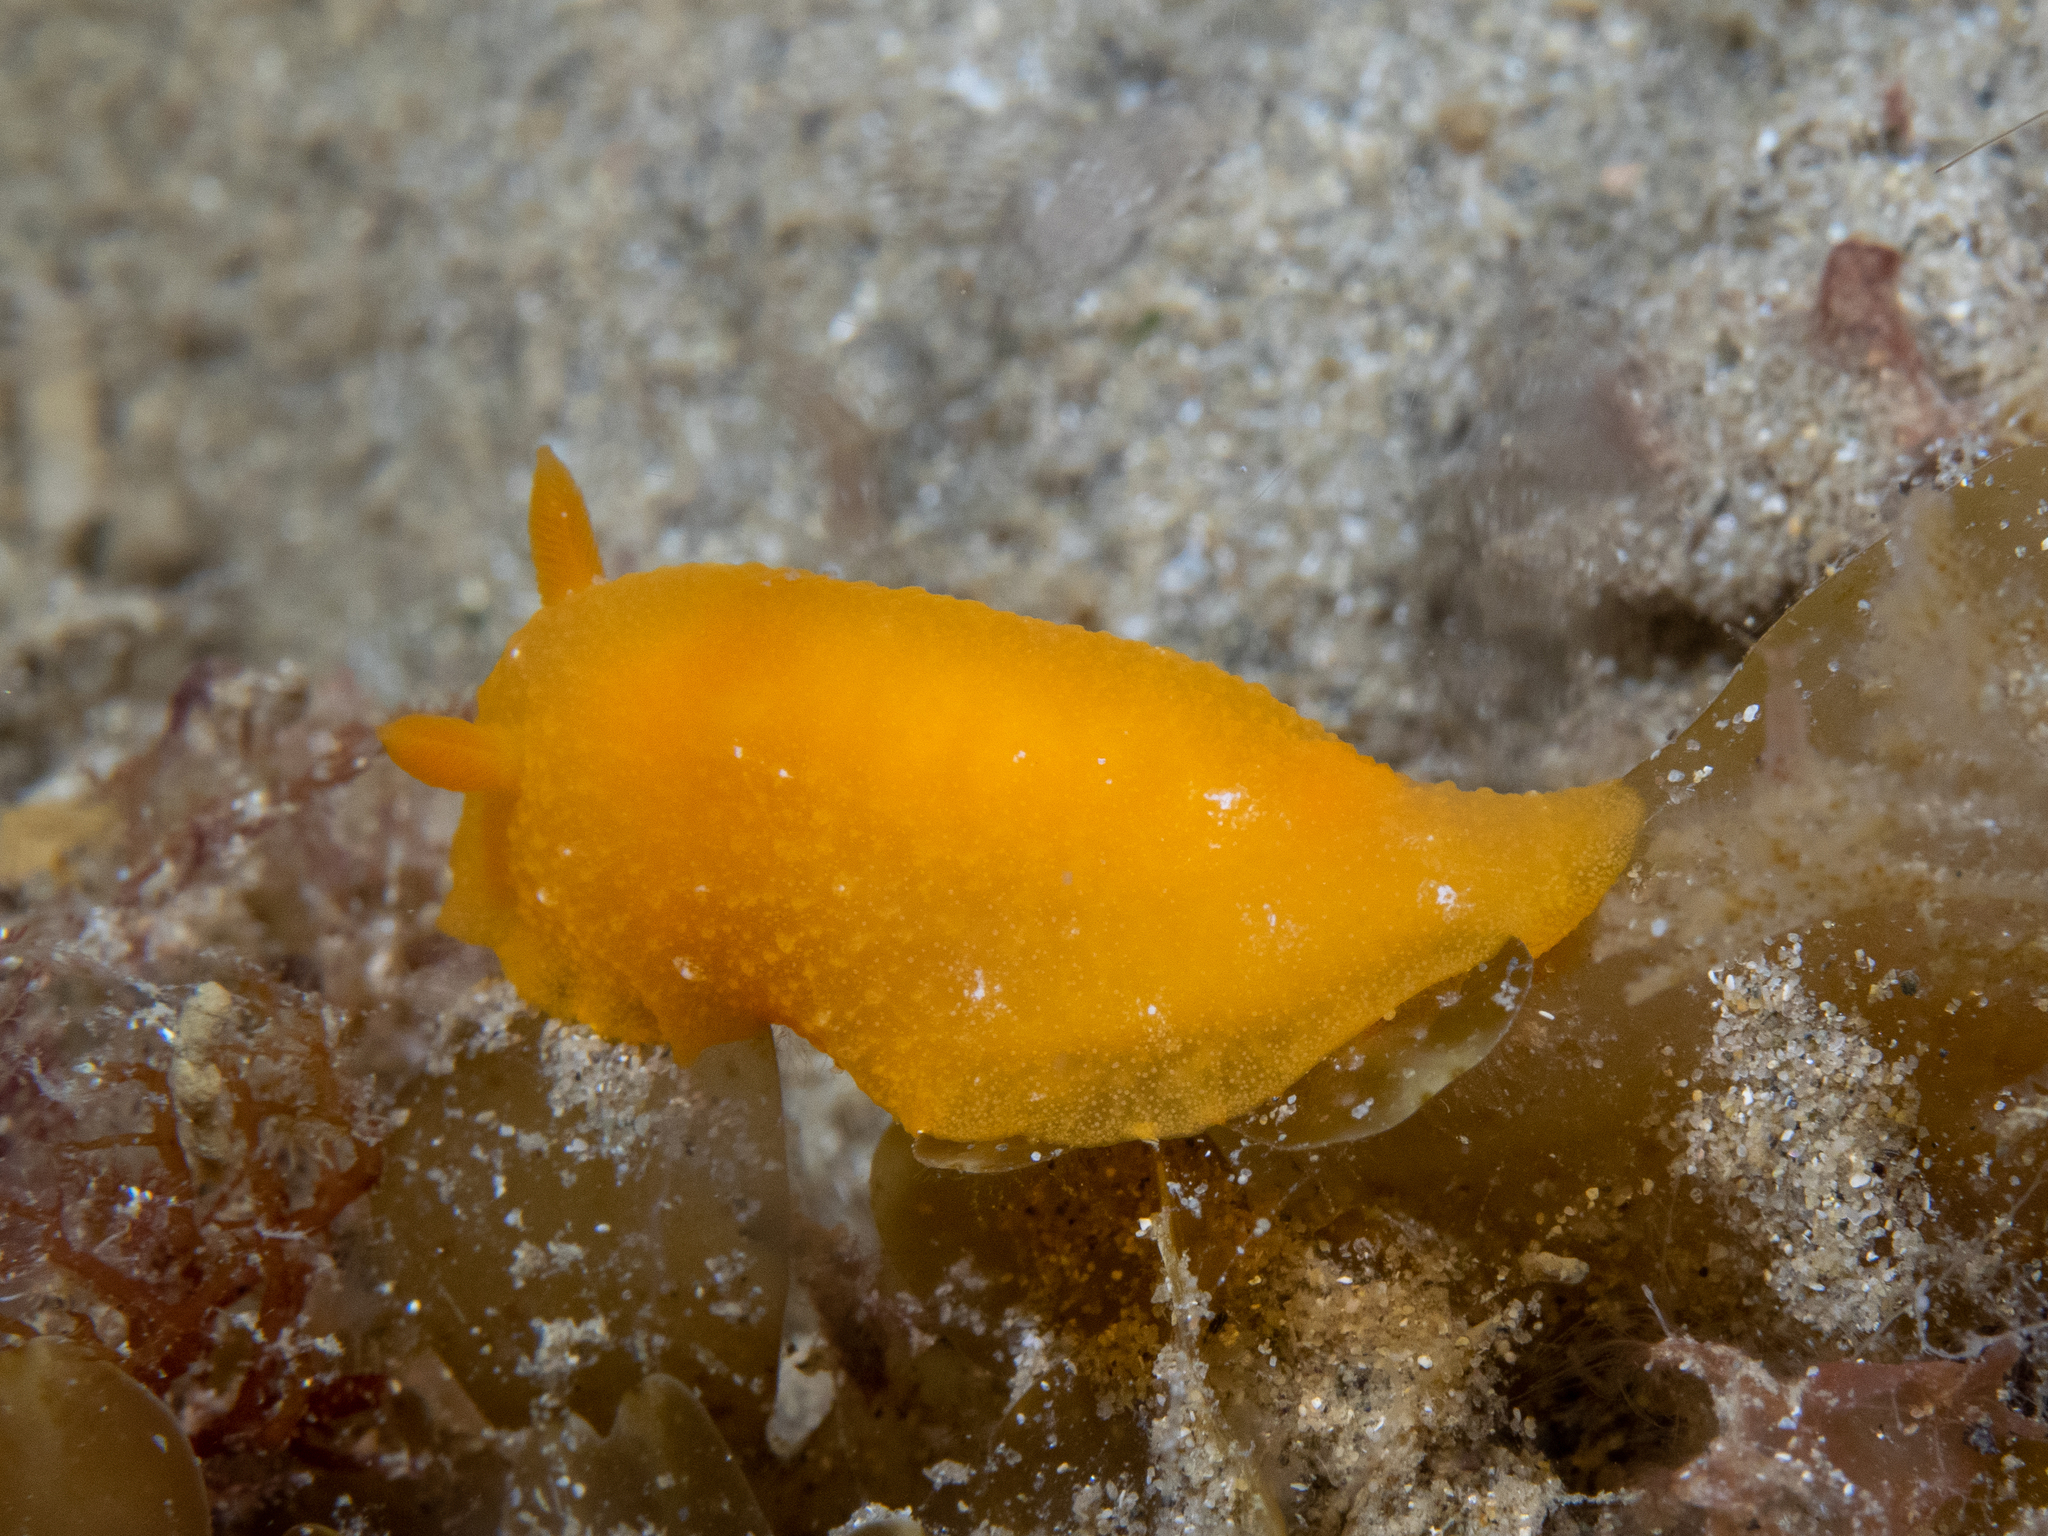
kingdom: Animalia
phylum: Mollusca
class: Gastropoda
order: Nudibranchia
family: Dendrodorididae
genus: Doriopsilla
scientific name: Doriopsilla carneola
